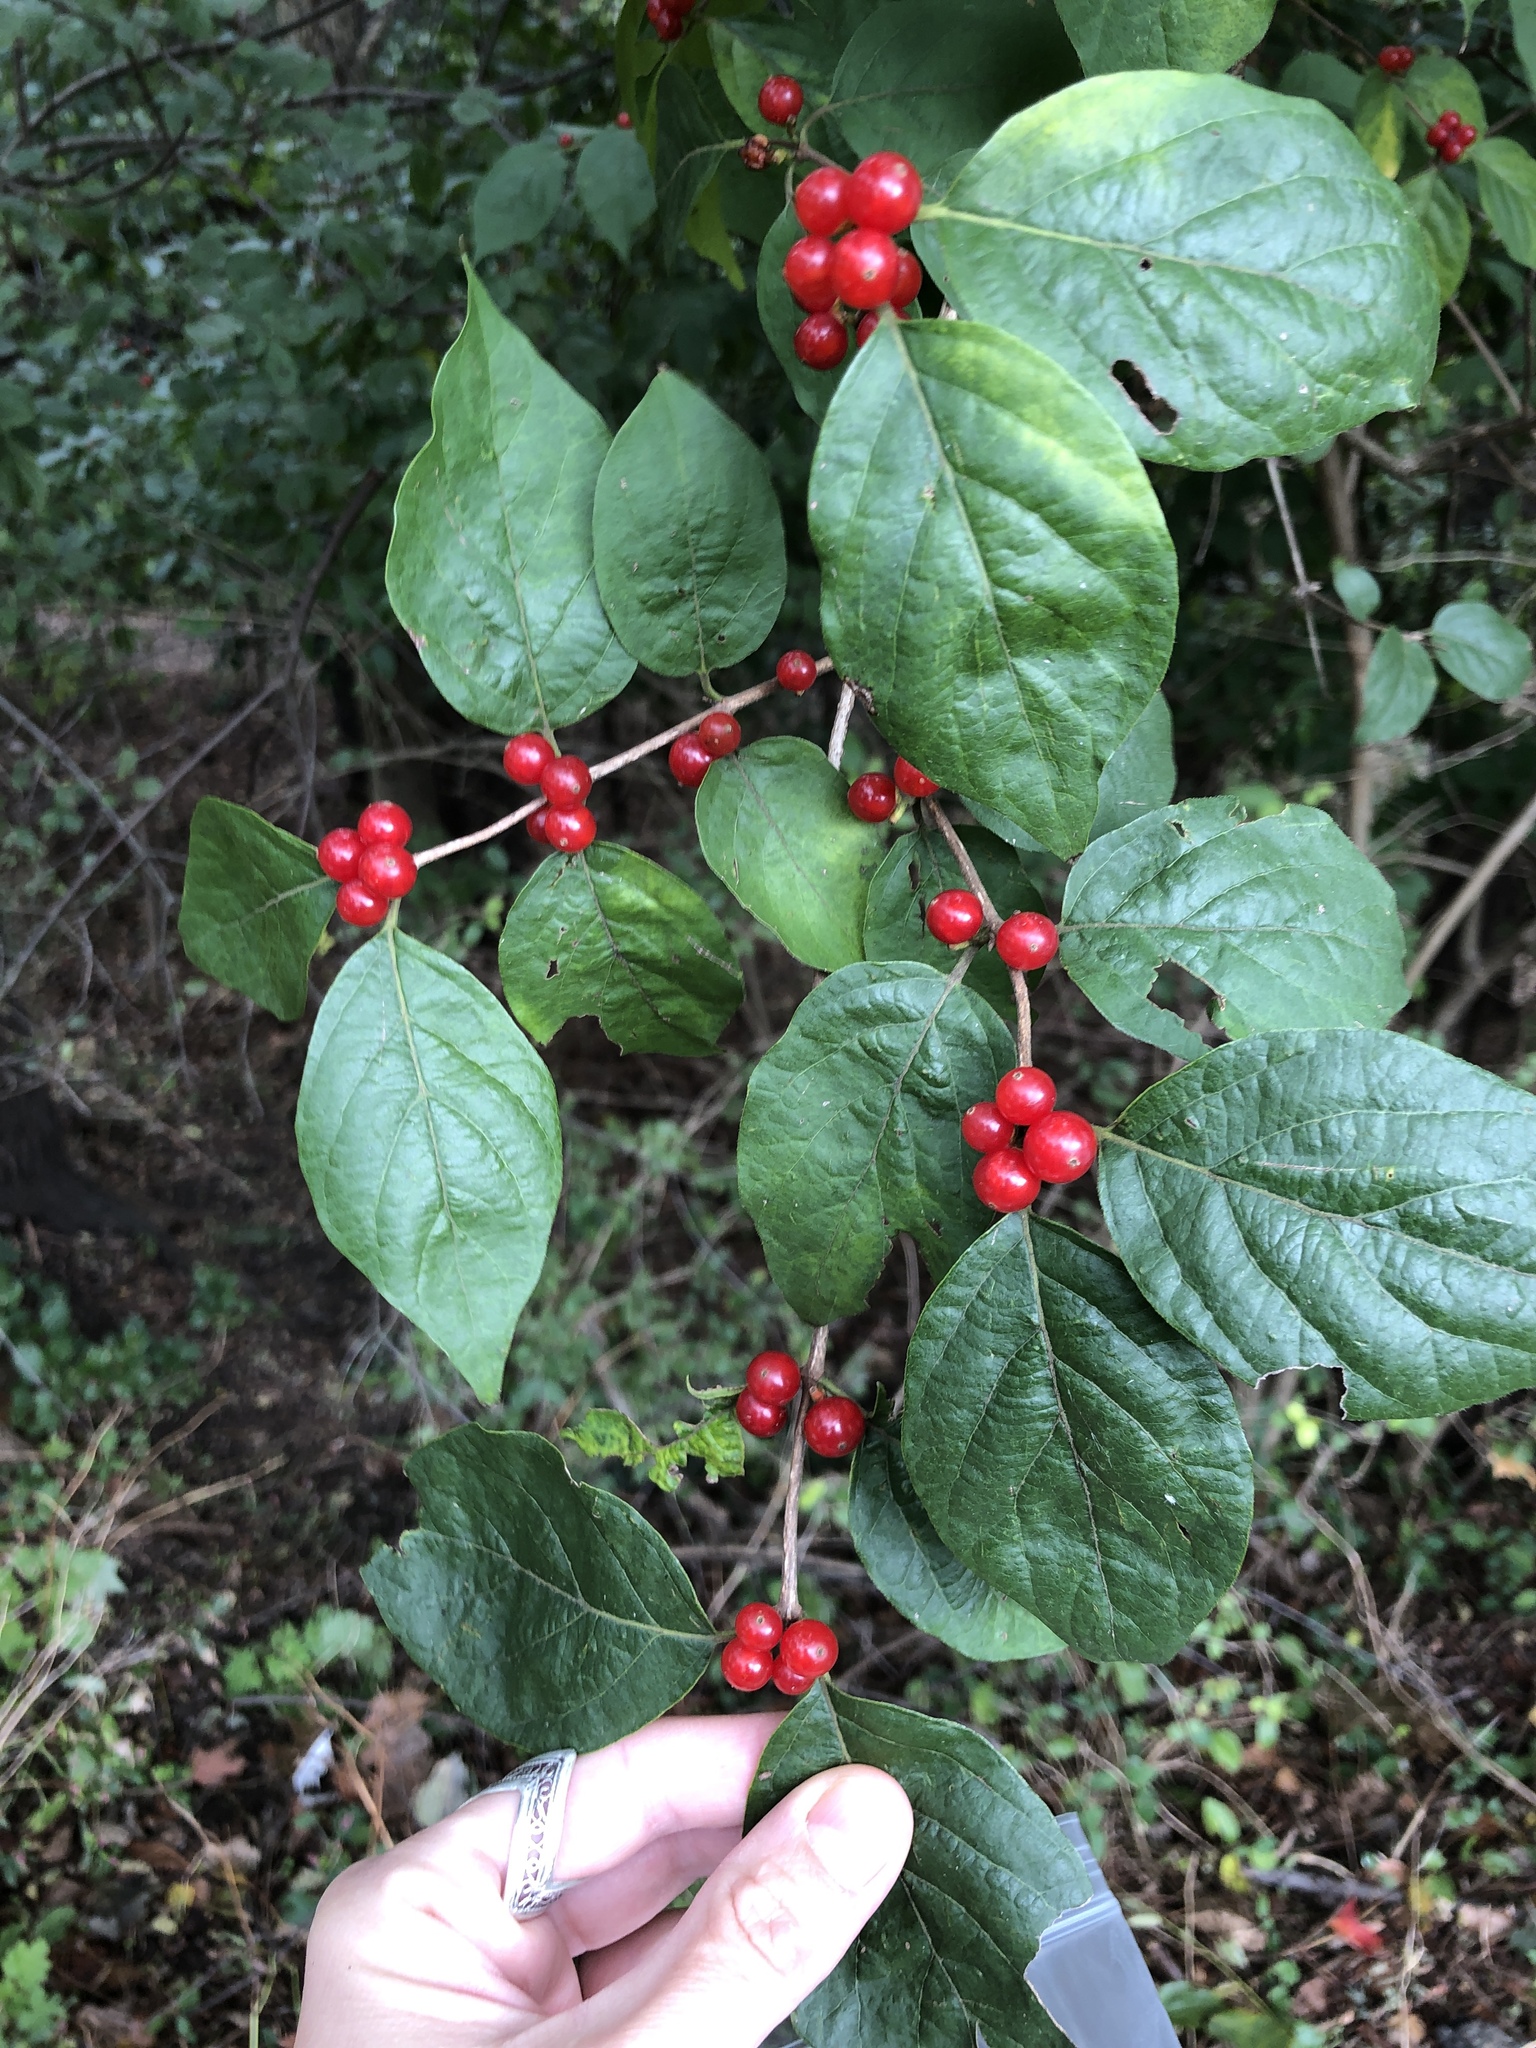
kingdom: Plantae
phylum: Tracheophyta
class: Magnoliopsida
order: Dipsacales
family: Caprifoliaceae
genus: Lonicera
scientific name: Lonicera maackii
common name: Amur honeysuckle
